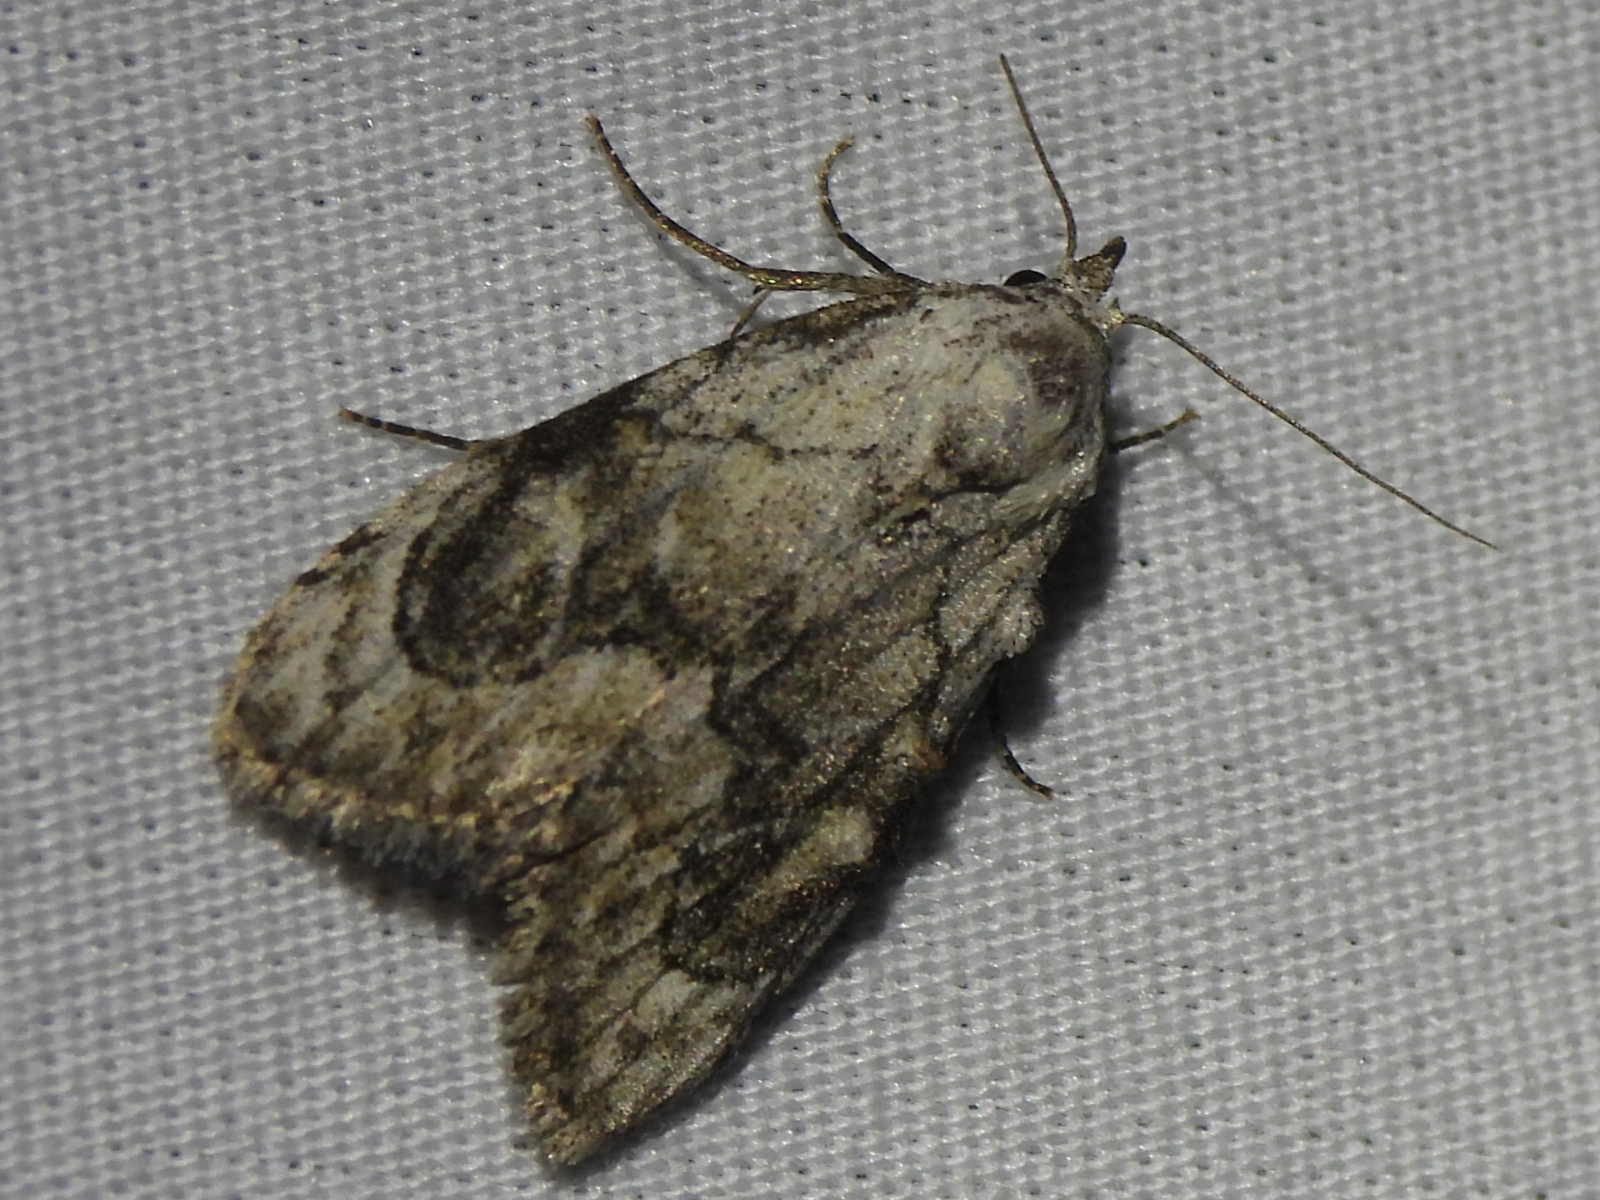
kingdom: Animalia
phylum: Arthropoda
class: Insecta
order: Lepidoptera
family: Nolidae
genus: Meganola
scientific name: Meganola minuscula
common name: Confused meganola moth
